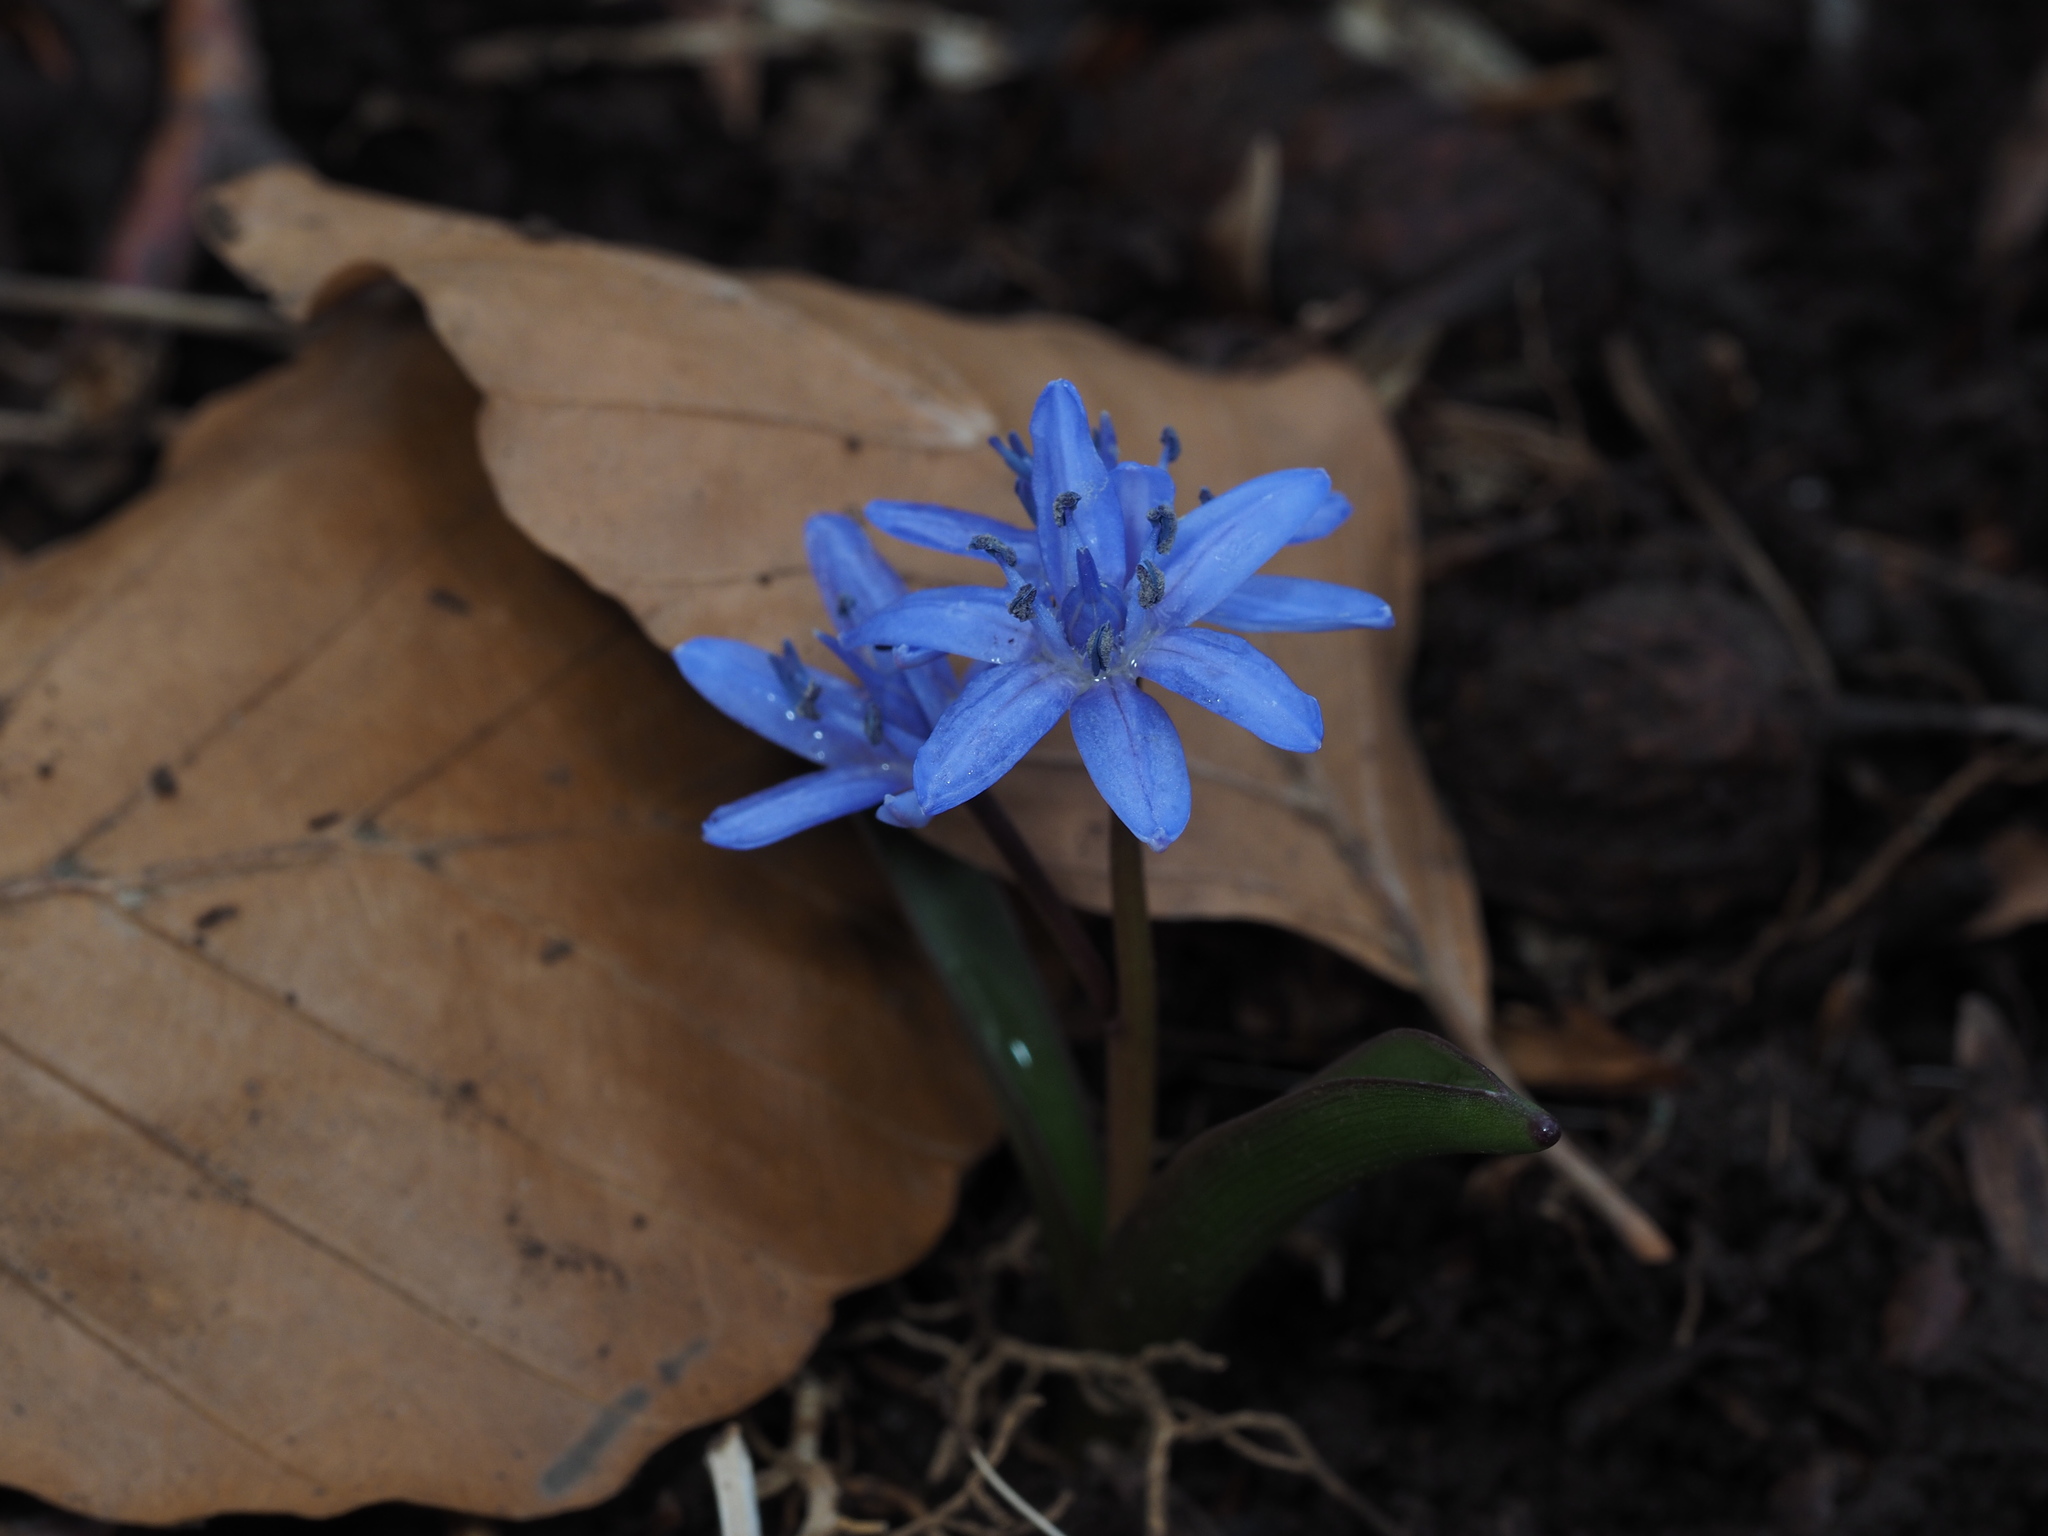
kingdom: Plantae
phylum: Tracheophyta
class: Liliopsida
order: Asparagales
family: Asparagaceae
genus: Scilla
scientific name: Scilla bifolia
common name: Alpine squill
